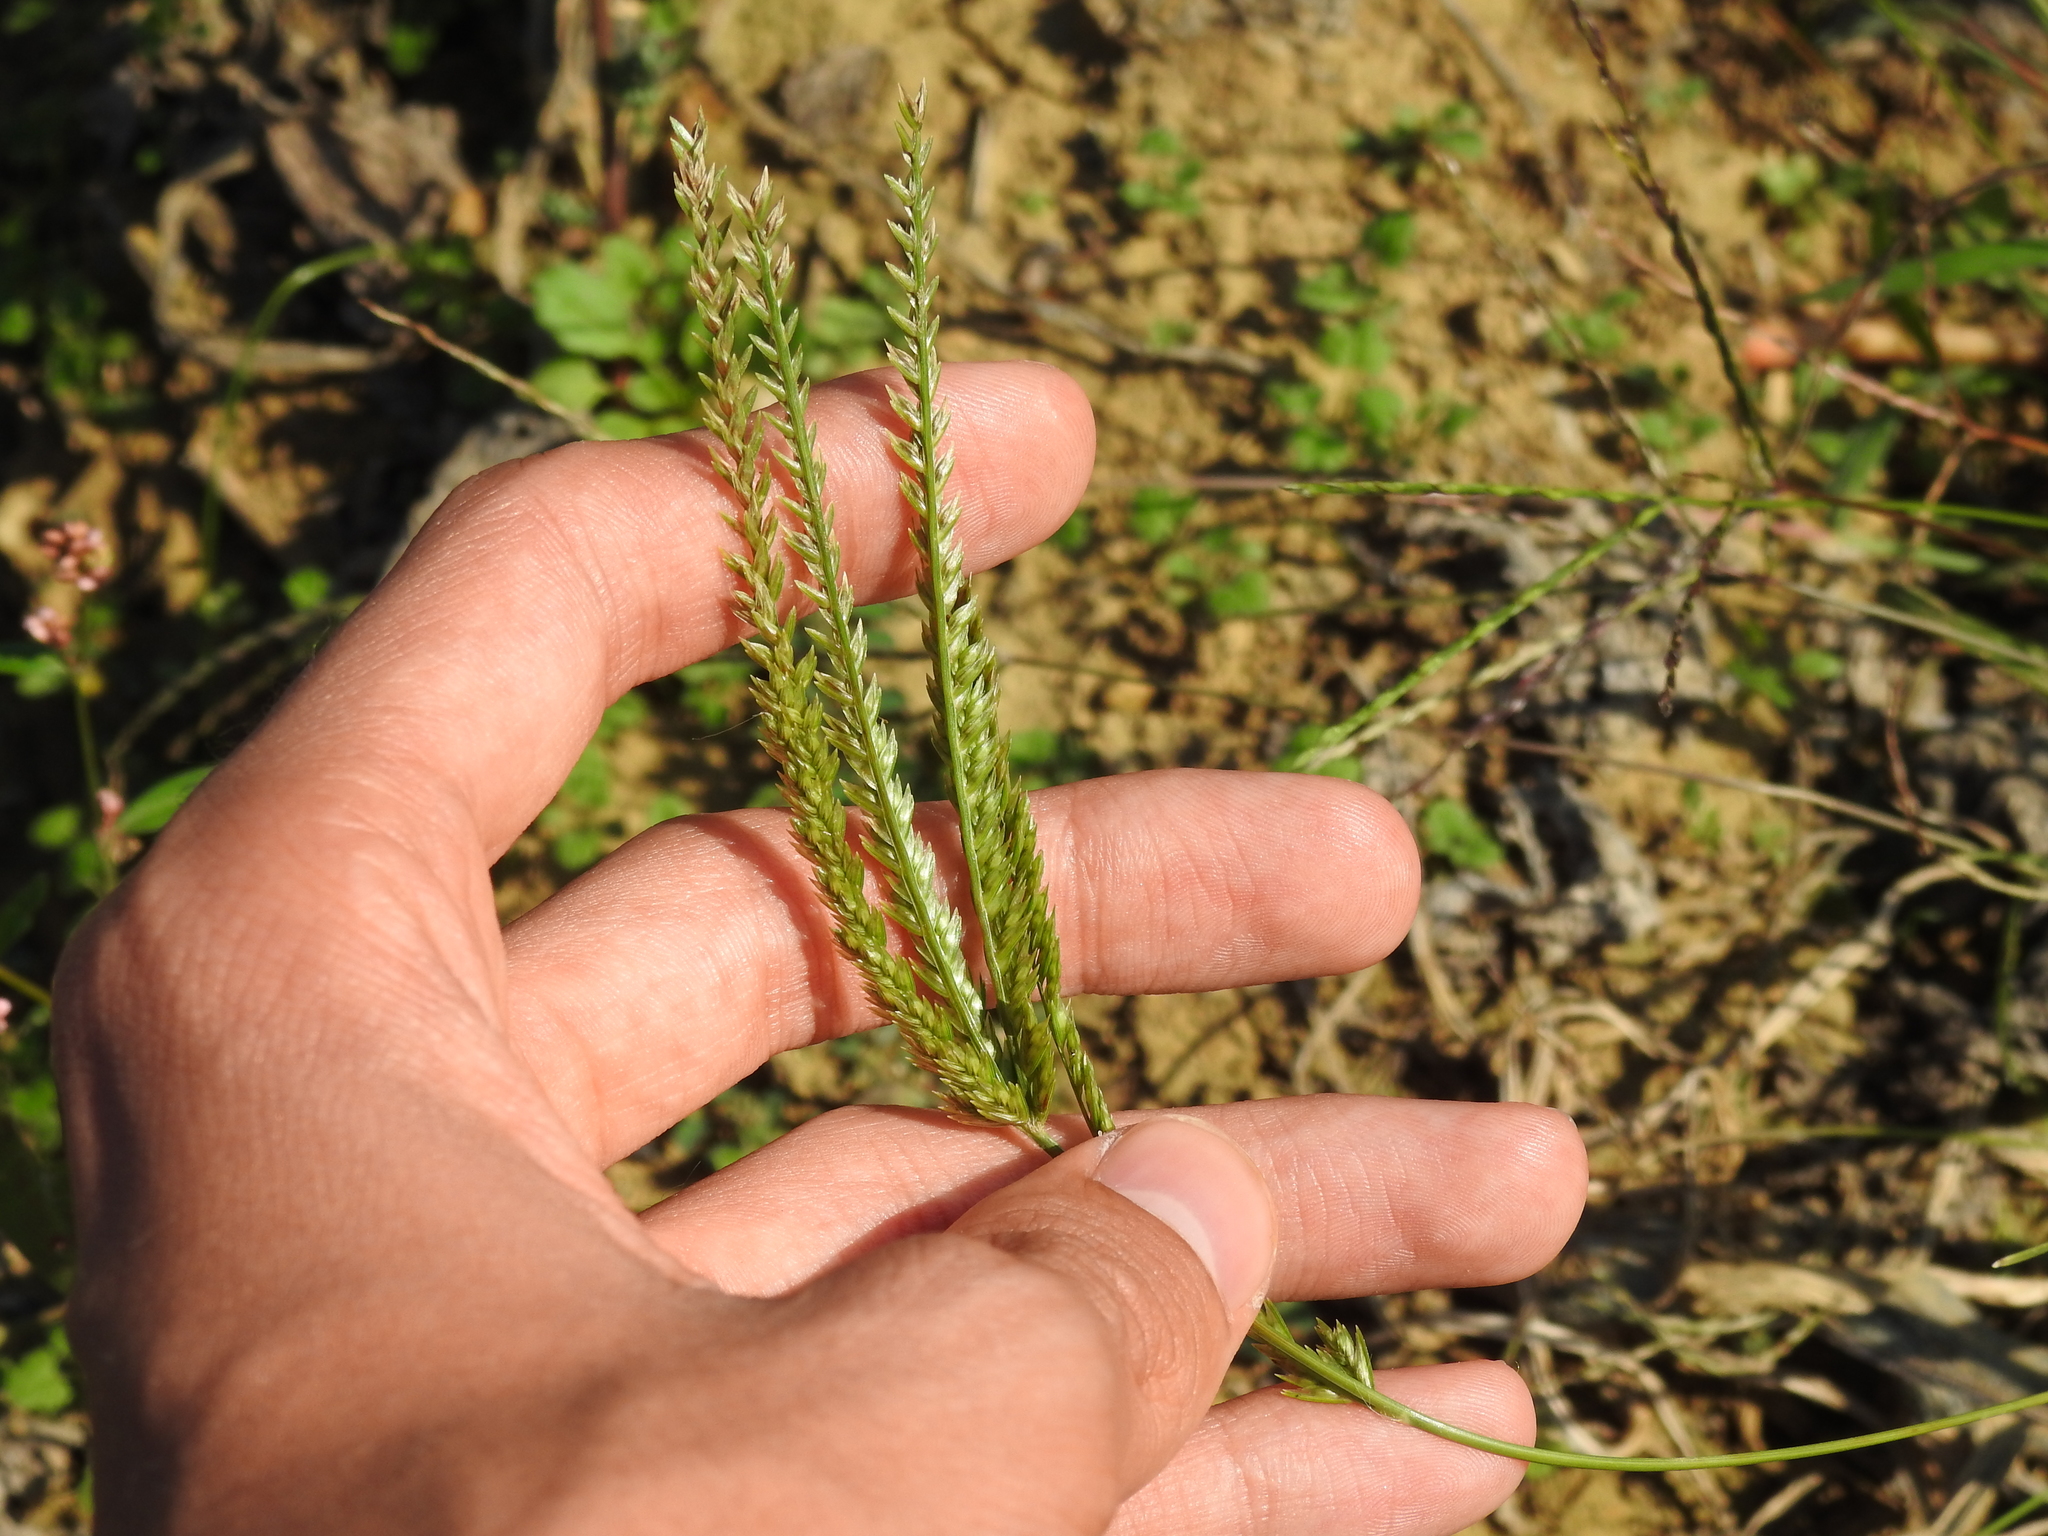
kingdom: Plantae
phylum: Tracheophyta
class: Liliopsida
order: Poales
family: Poaceae
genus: Eleusine
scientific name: Eleusine indica
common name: Yard-grass
